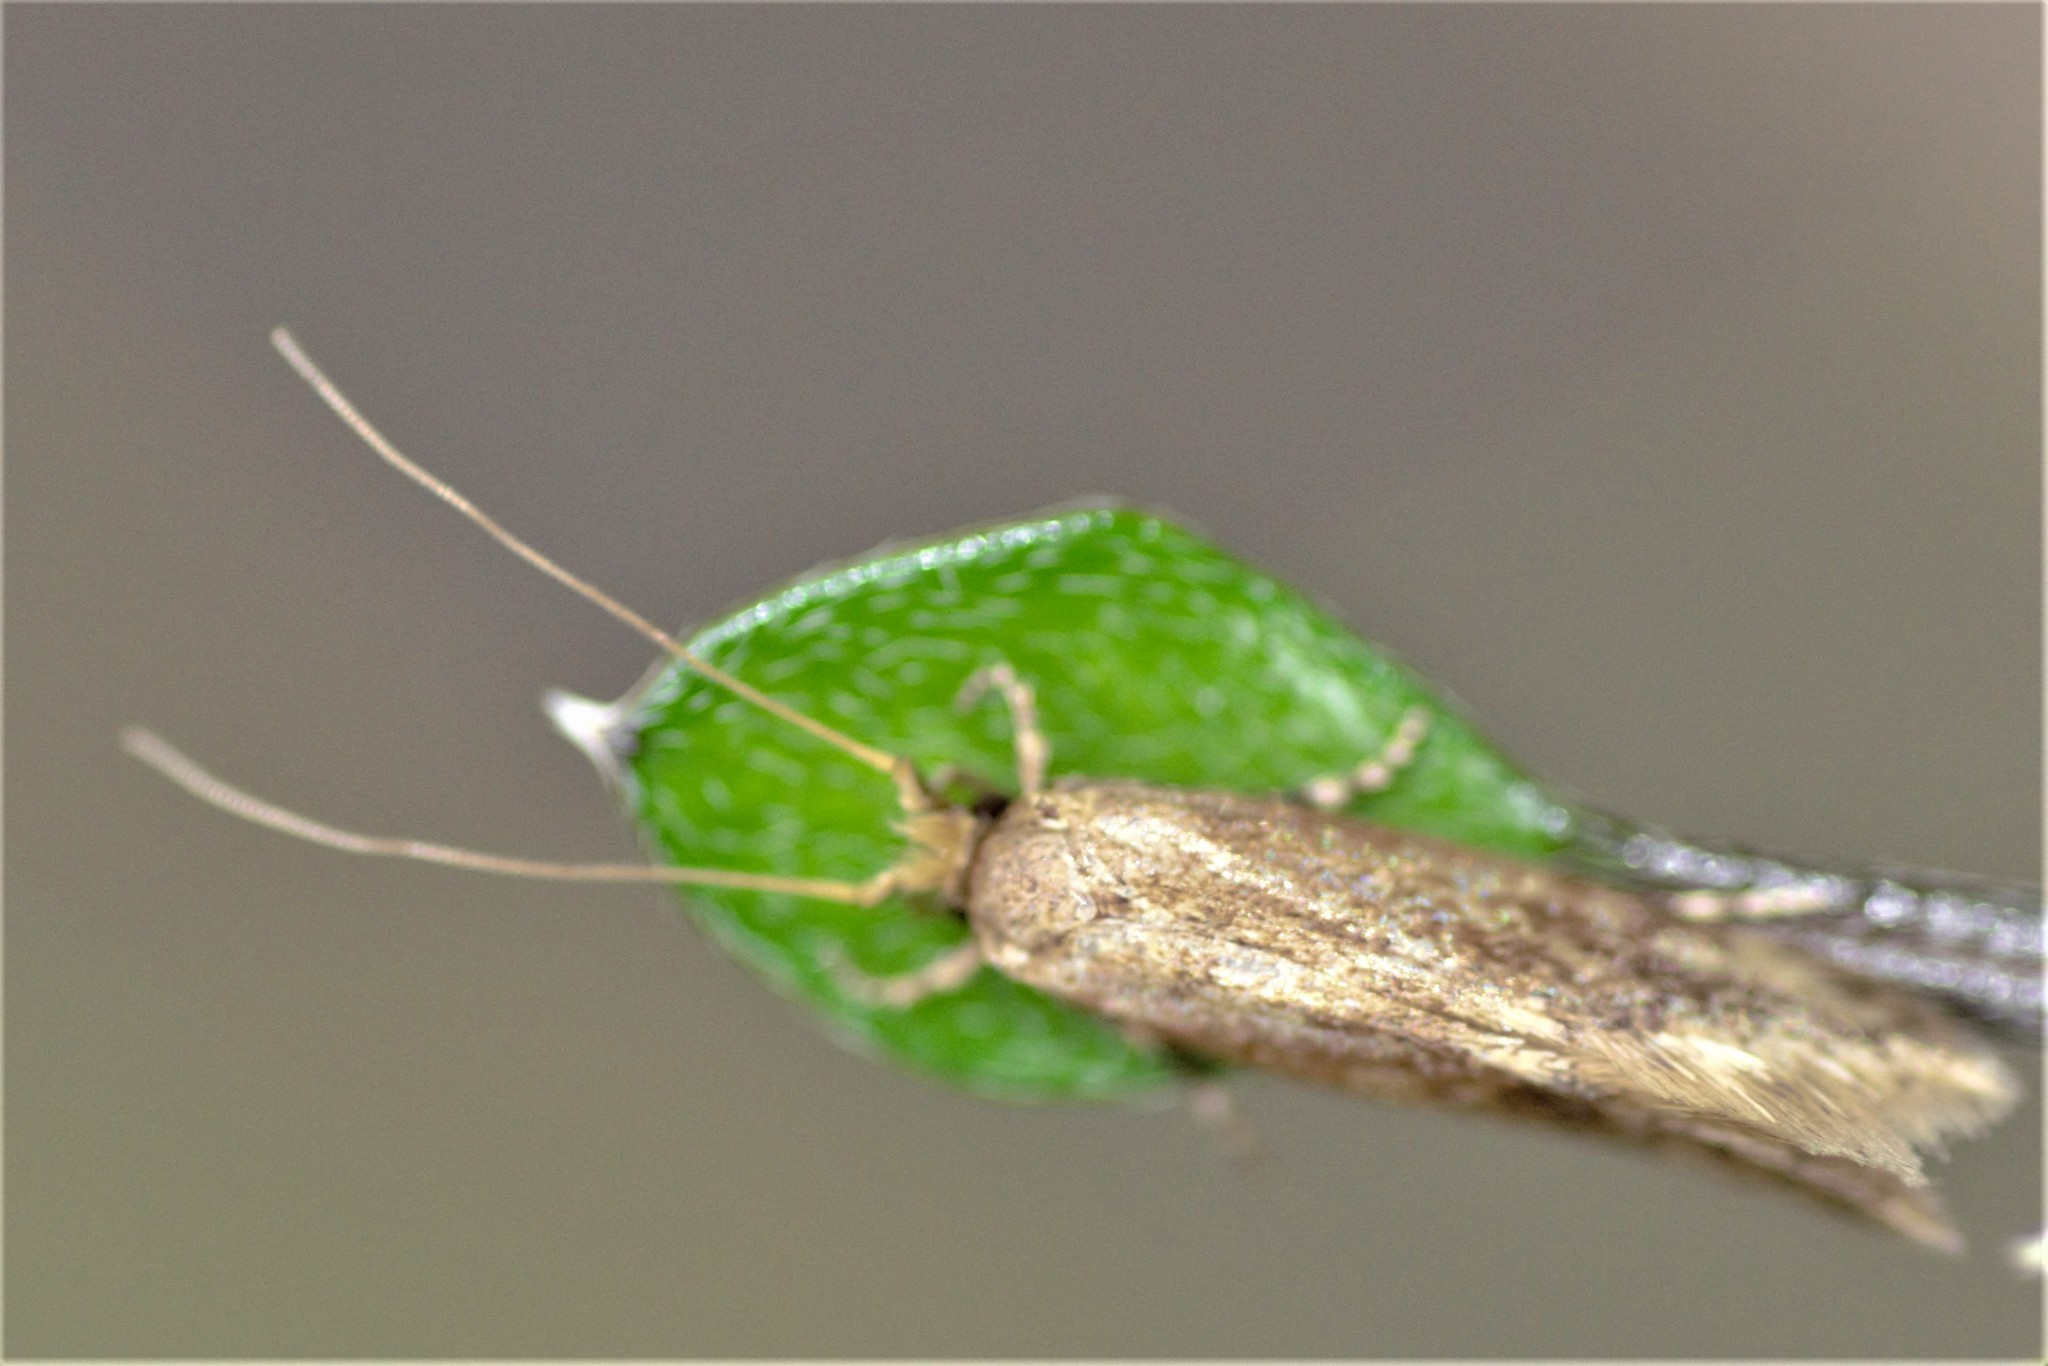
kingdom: Animalia
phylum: Arthropoda
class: Insecta
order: Lepidoptera
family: Tineidae
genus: Opogona
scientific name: Opogona omoscopa
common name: Moth
